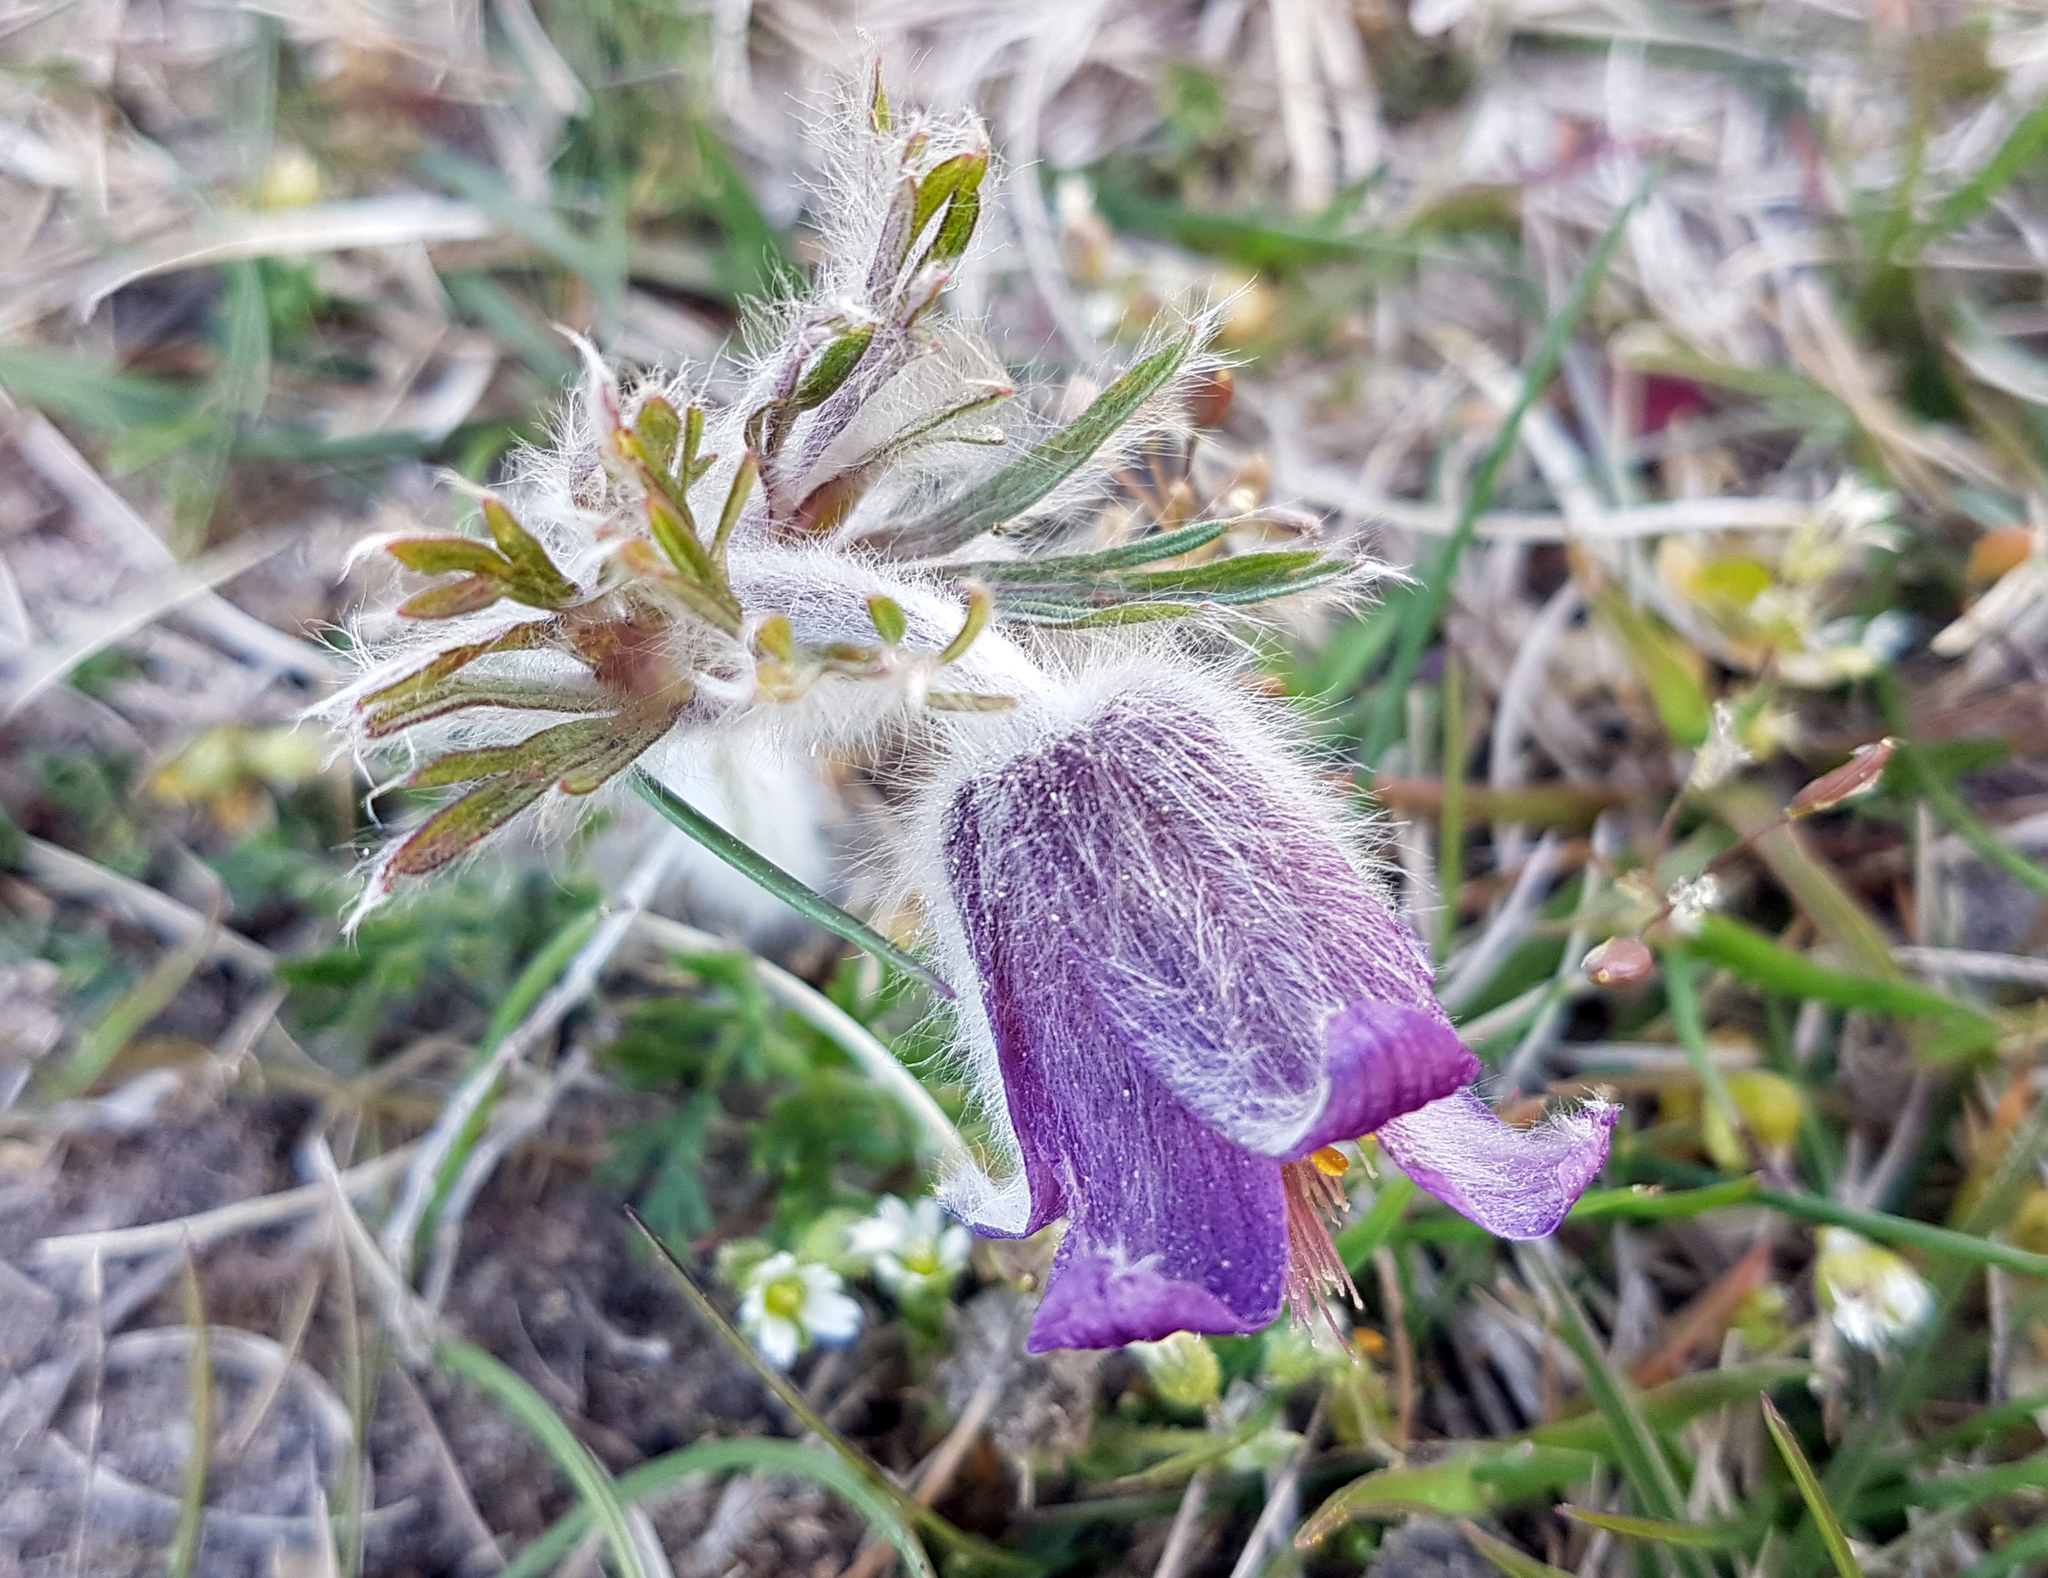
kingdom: Plantae
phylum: Tracheophyta
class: Magnoliopsida
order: Ranunculales
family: Ranunculaceae
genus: Pulsatilla
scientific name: Pulsatilla pratensis
